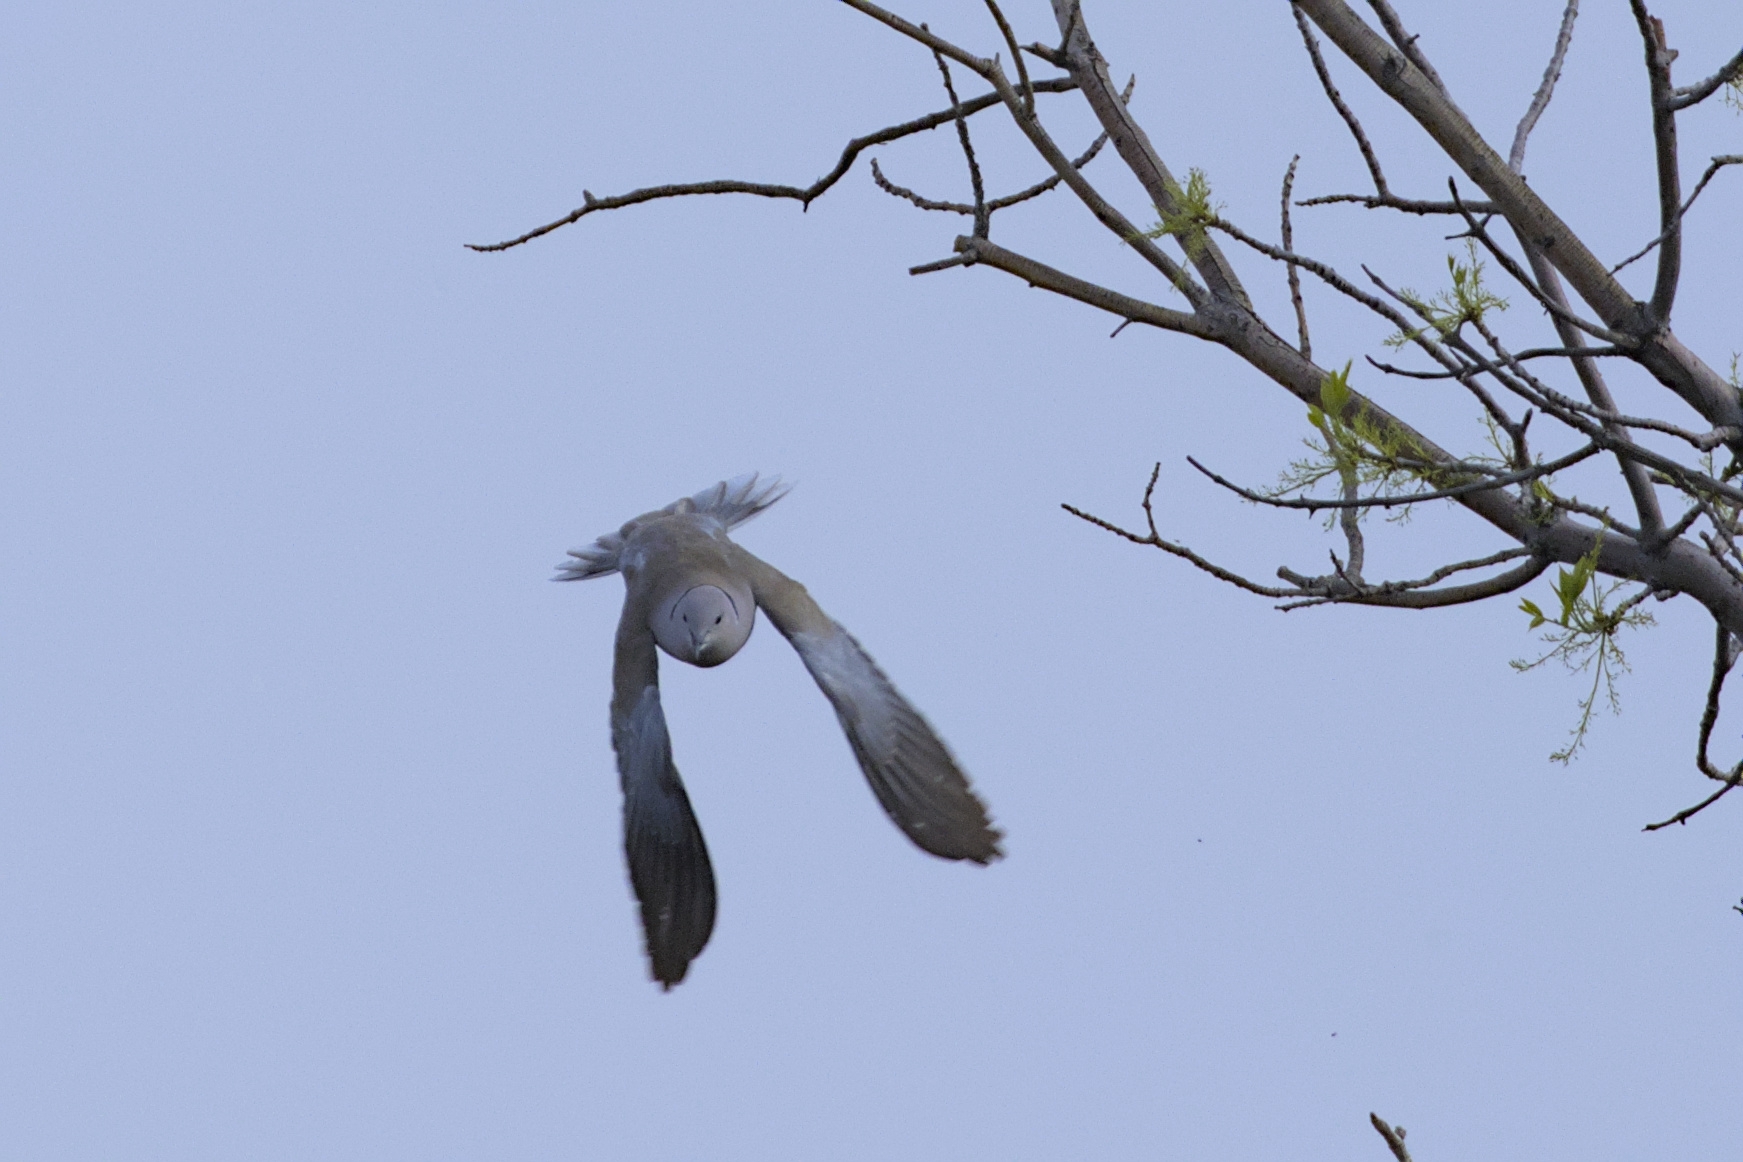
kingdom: Animalia
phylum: Chordata
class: Aves
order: Columbiformes
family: Columbidae
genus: Streptopelia
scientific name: Streptopelia decaocto
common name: Eurasian collared dove
